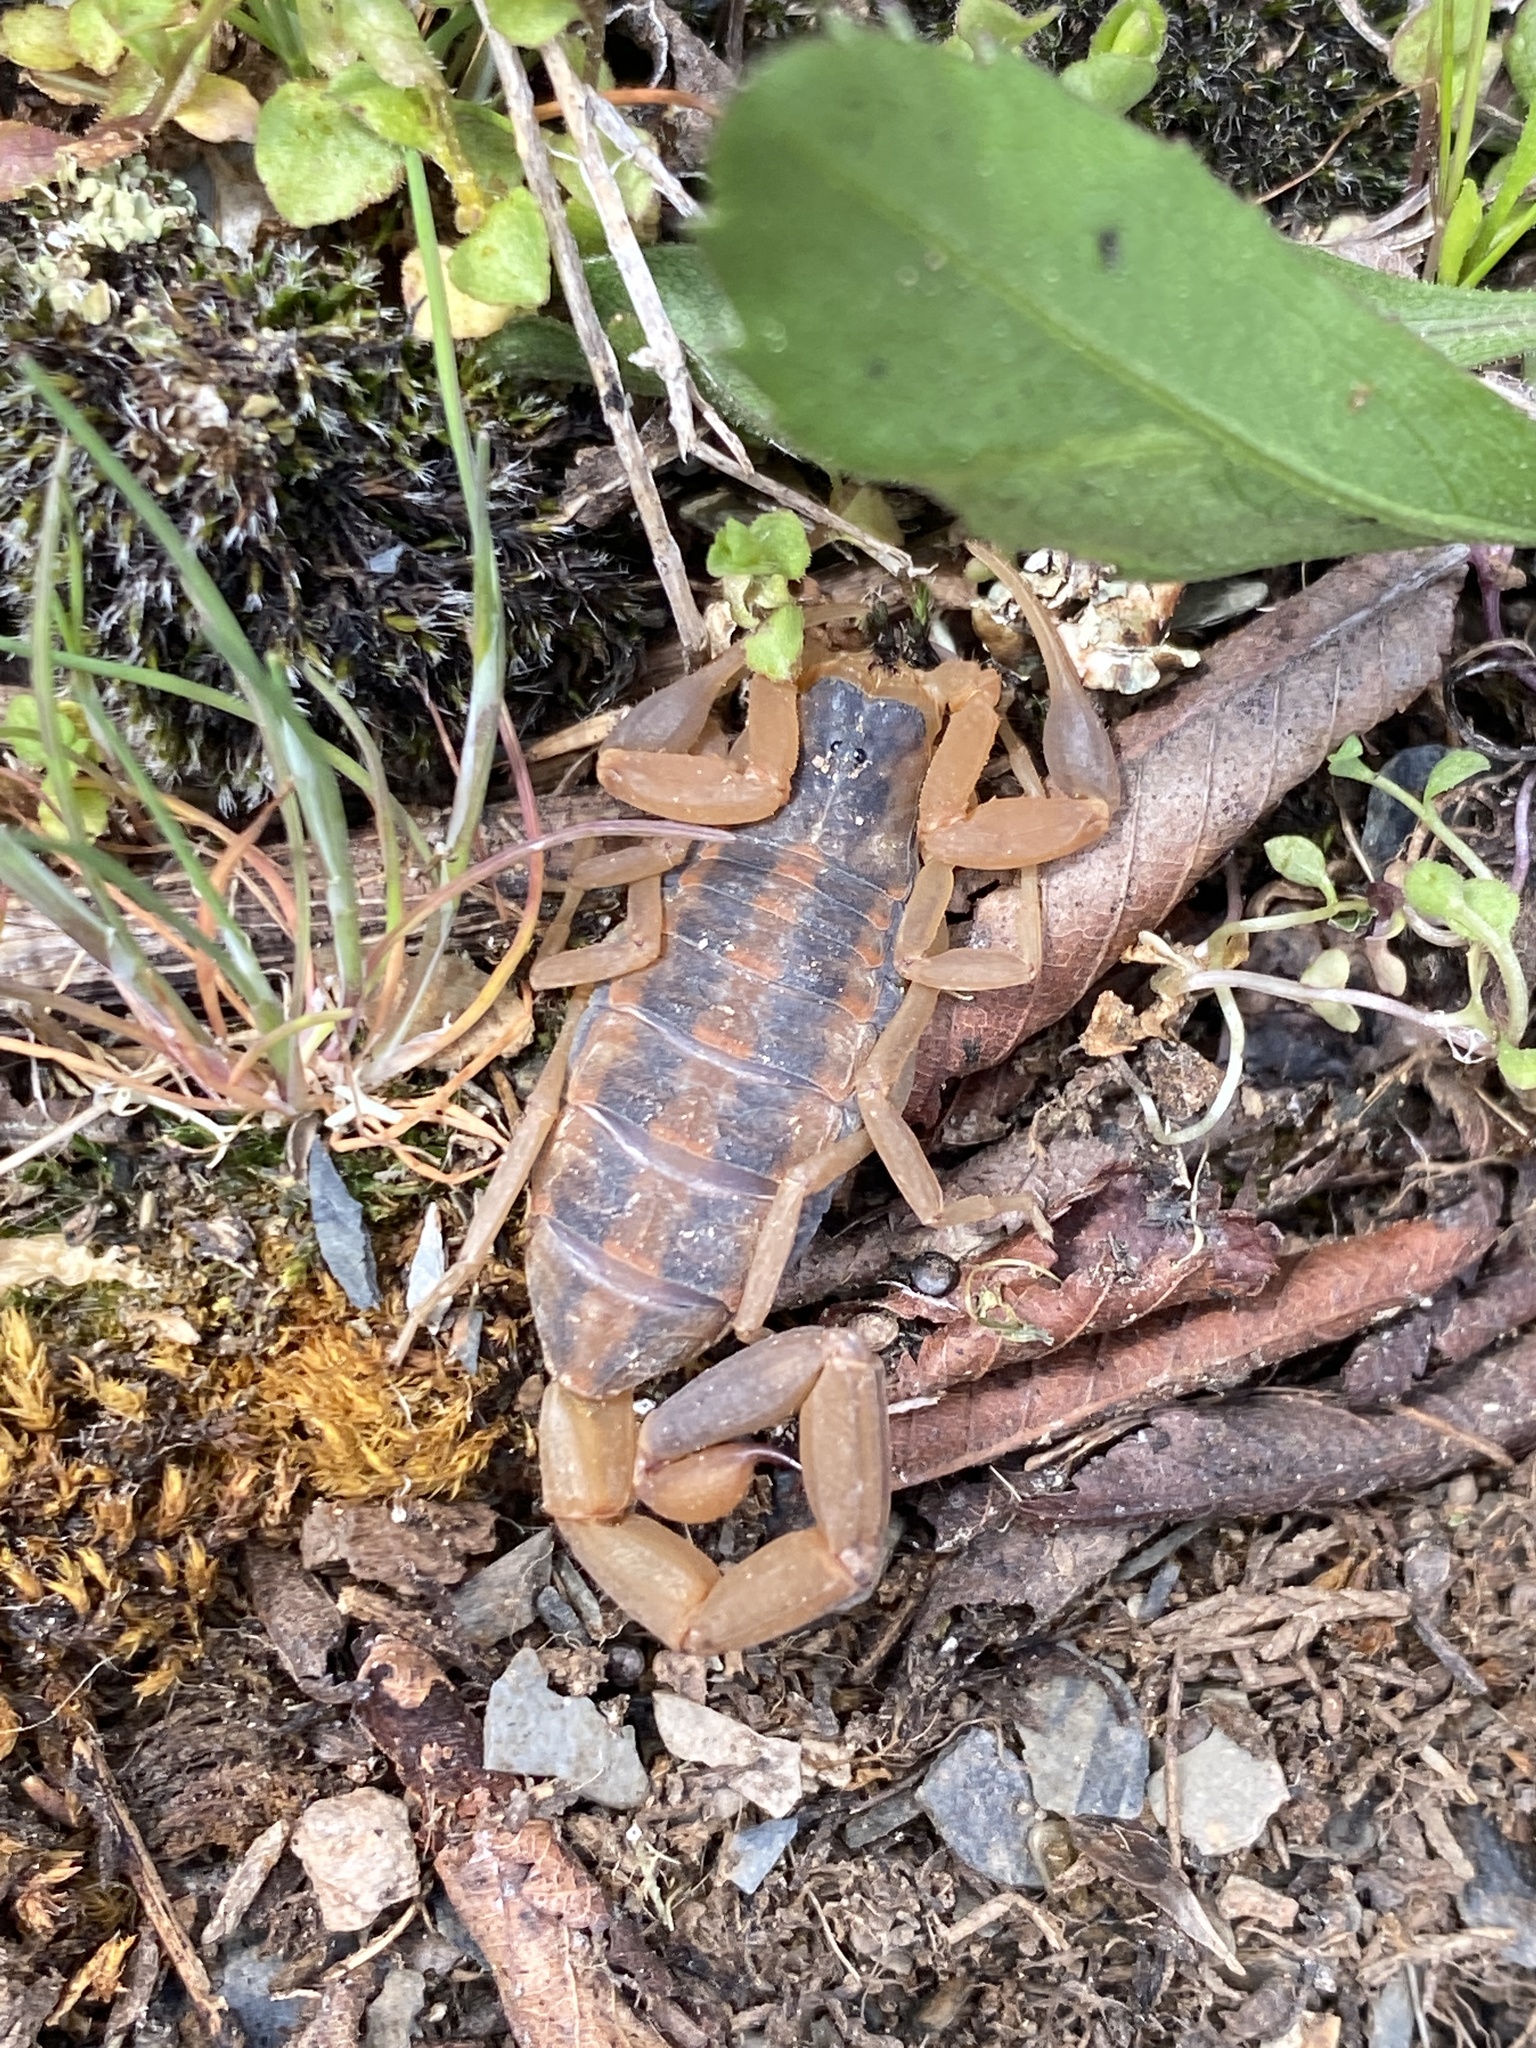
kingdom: Animalia
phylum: Arthropoda
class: Arachnida
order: Scorpiones
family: Buthidae
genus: Centruroides
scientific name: Centruroides vittatus
